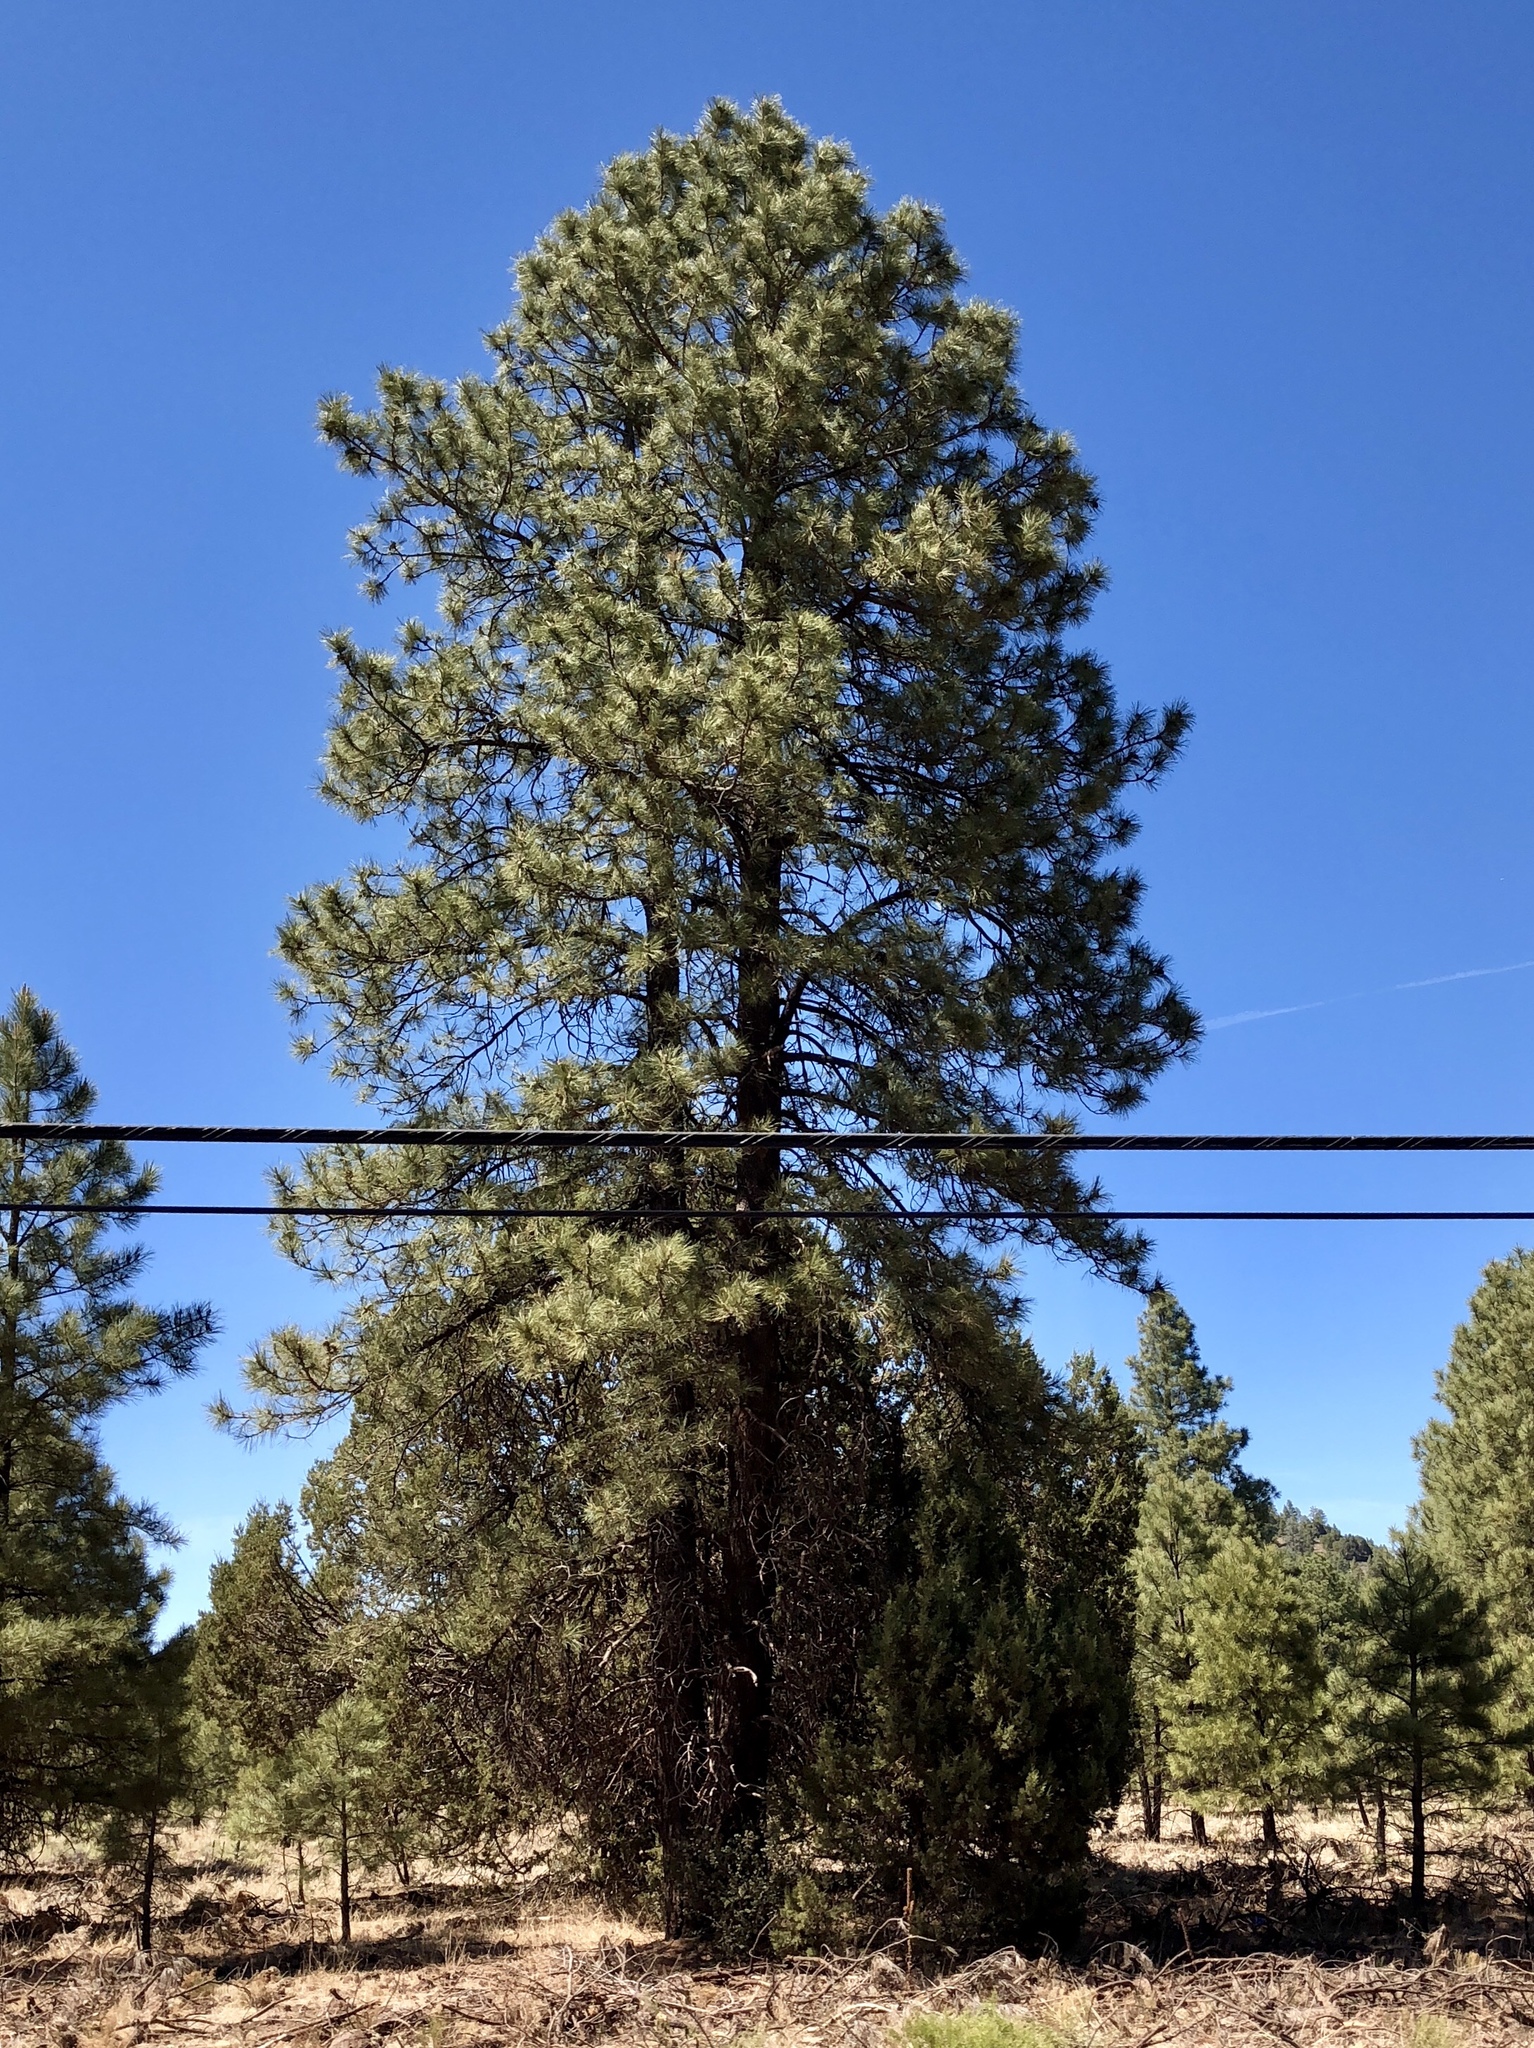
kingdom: Plantae
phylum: Tracheophyta
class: Pinopsida
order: Pinales
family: Pinaceae
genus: Pinus
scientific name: Pinus ponderosa
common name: Western yellow-pine
